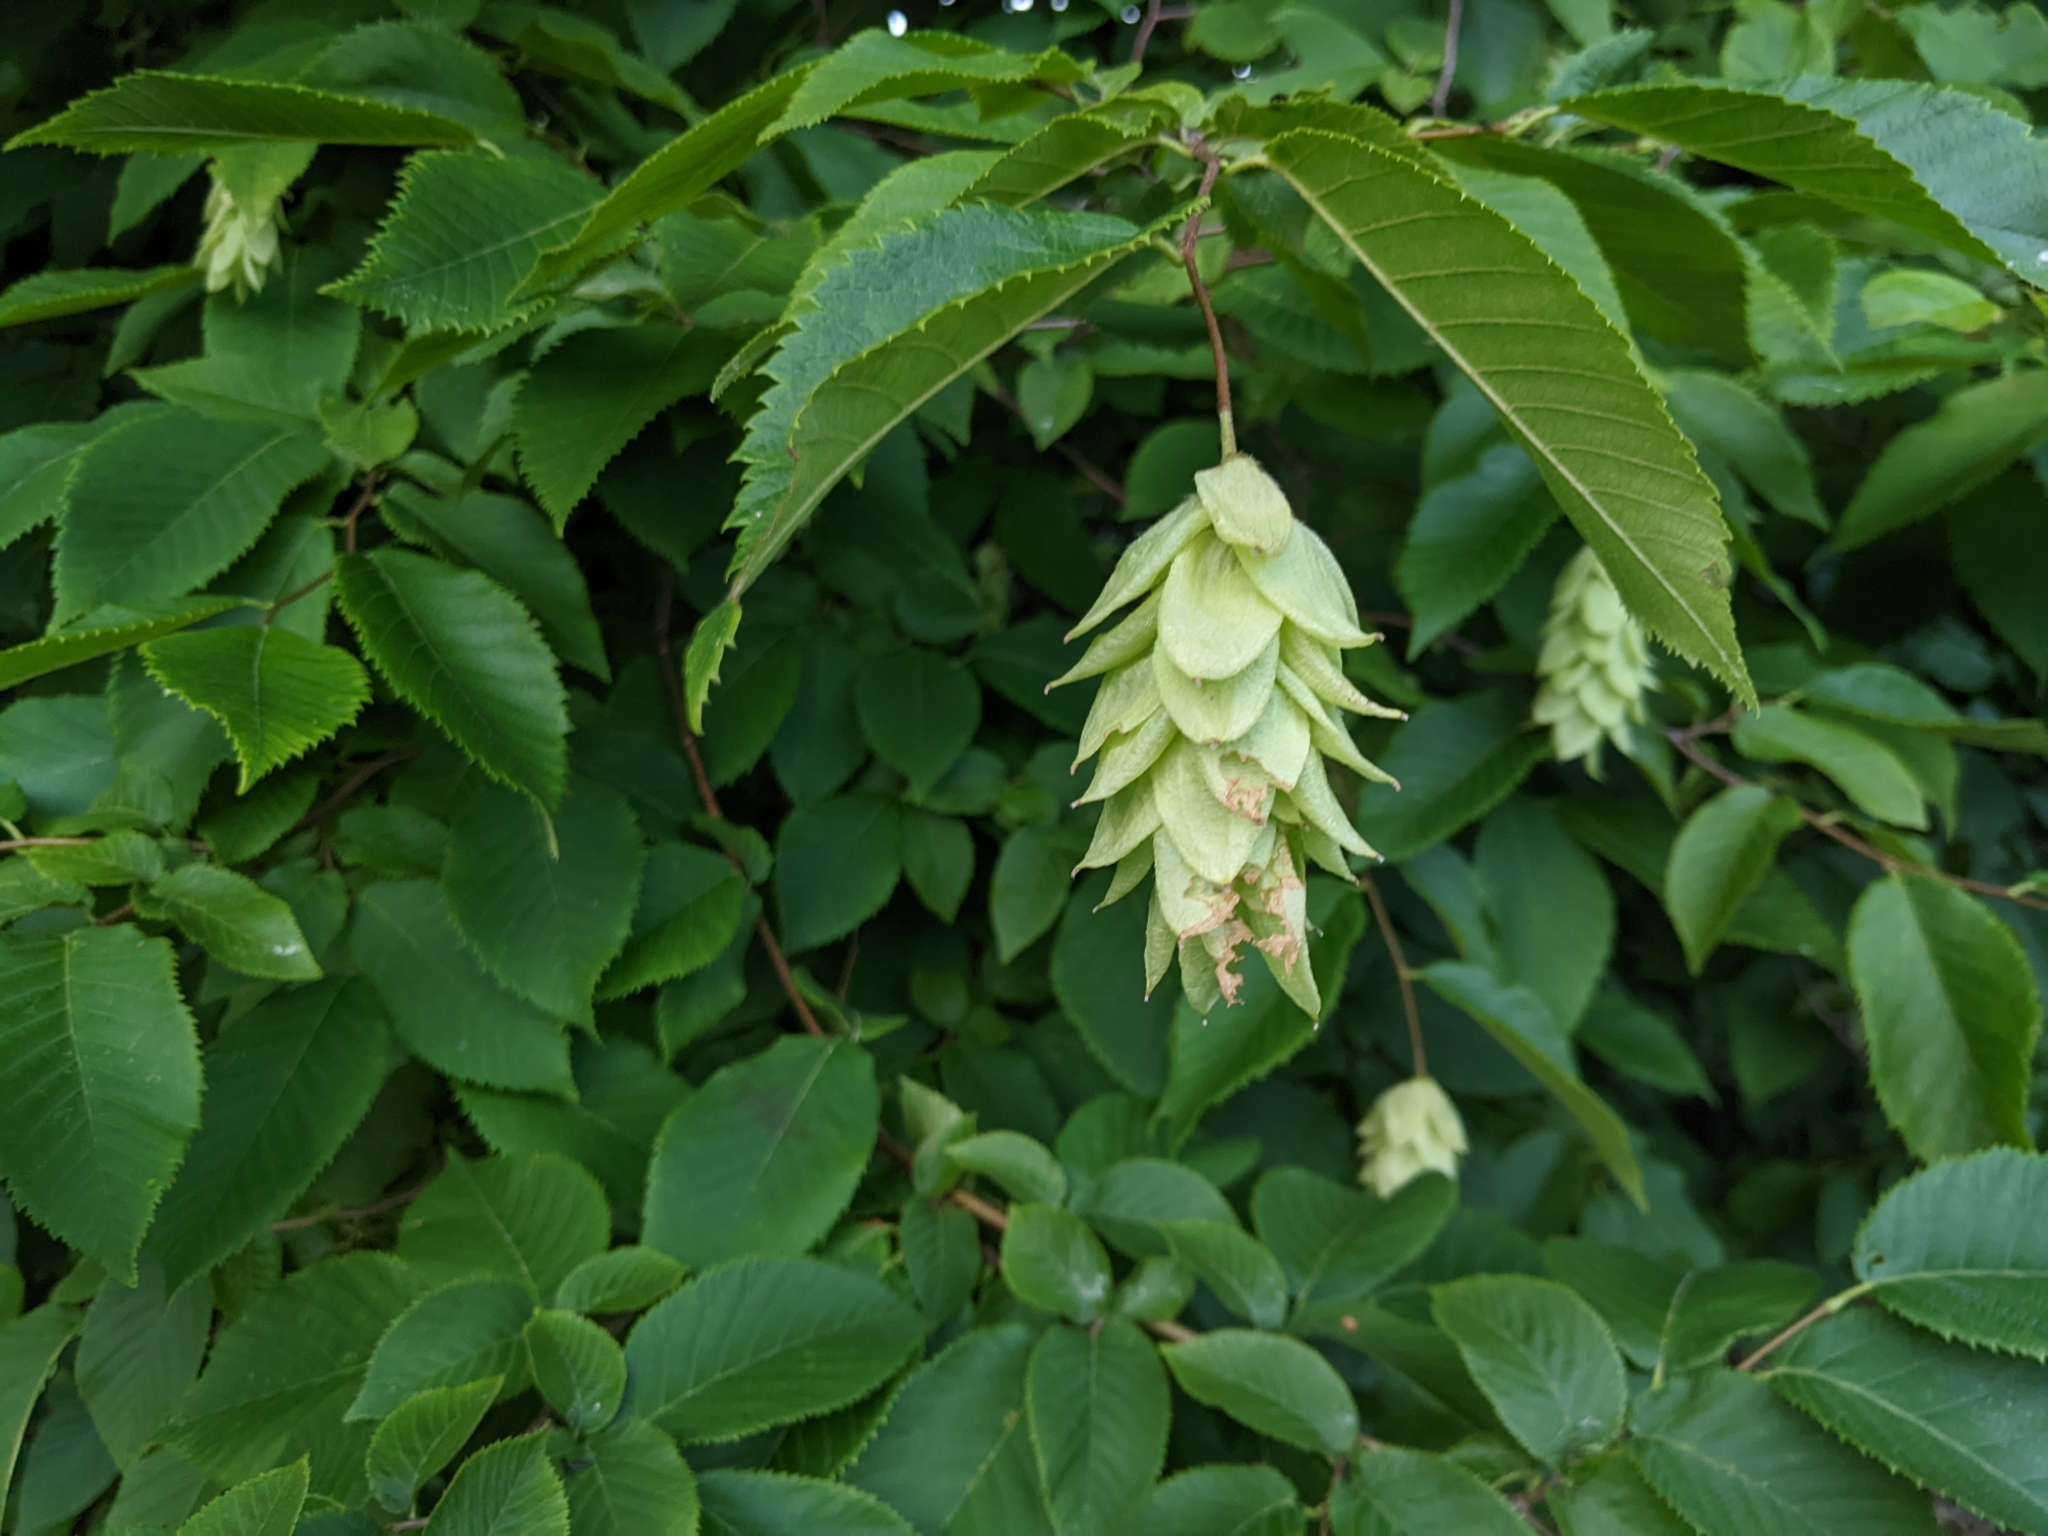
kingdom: Plantae
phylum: Tracheophyta
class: Magnoliopsida
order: Fagales
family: Betulaceae
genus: Ostrya
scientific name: Ostrya virginiana
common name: Ironwood
